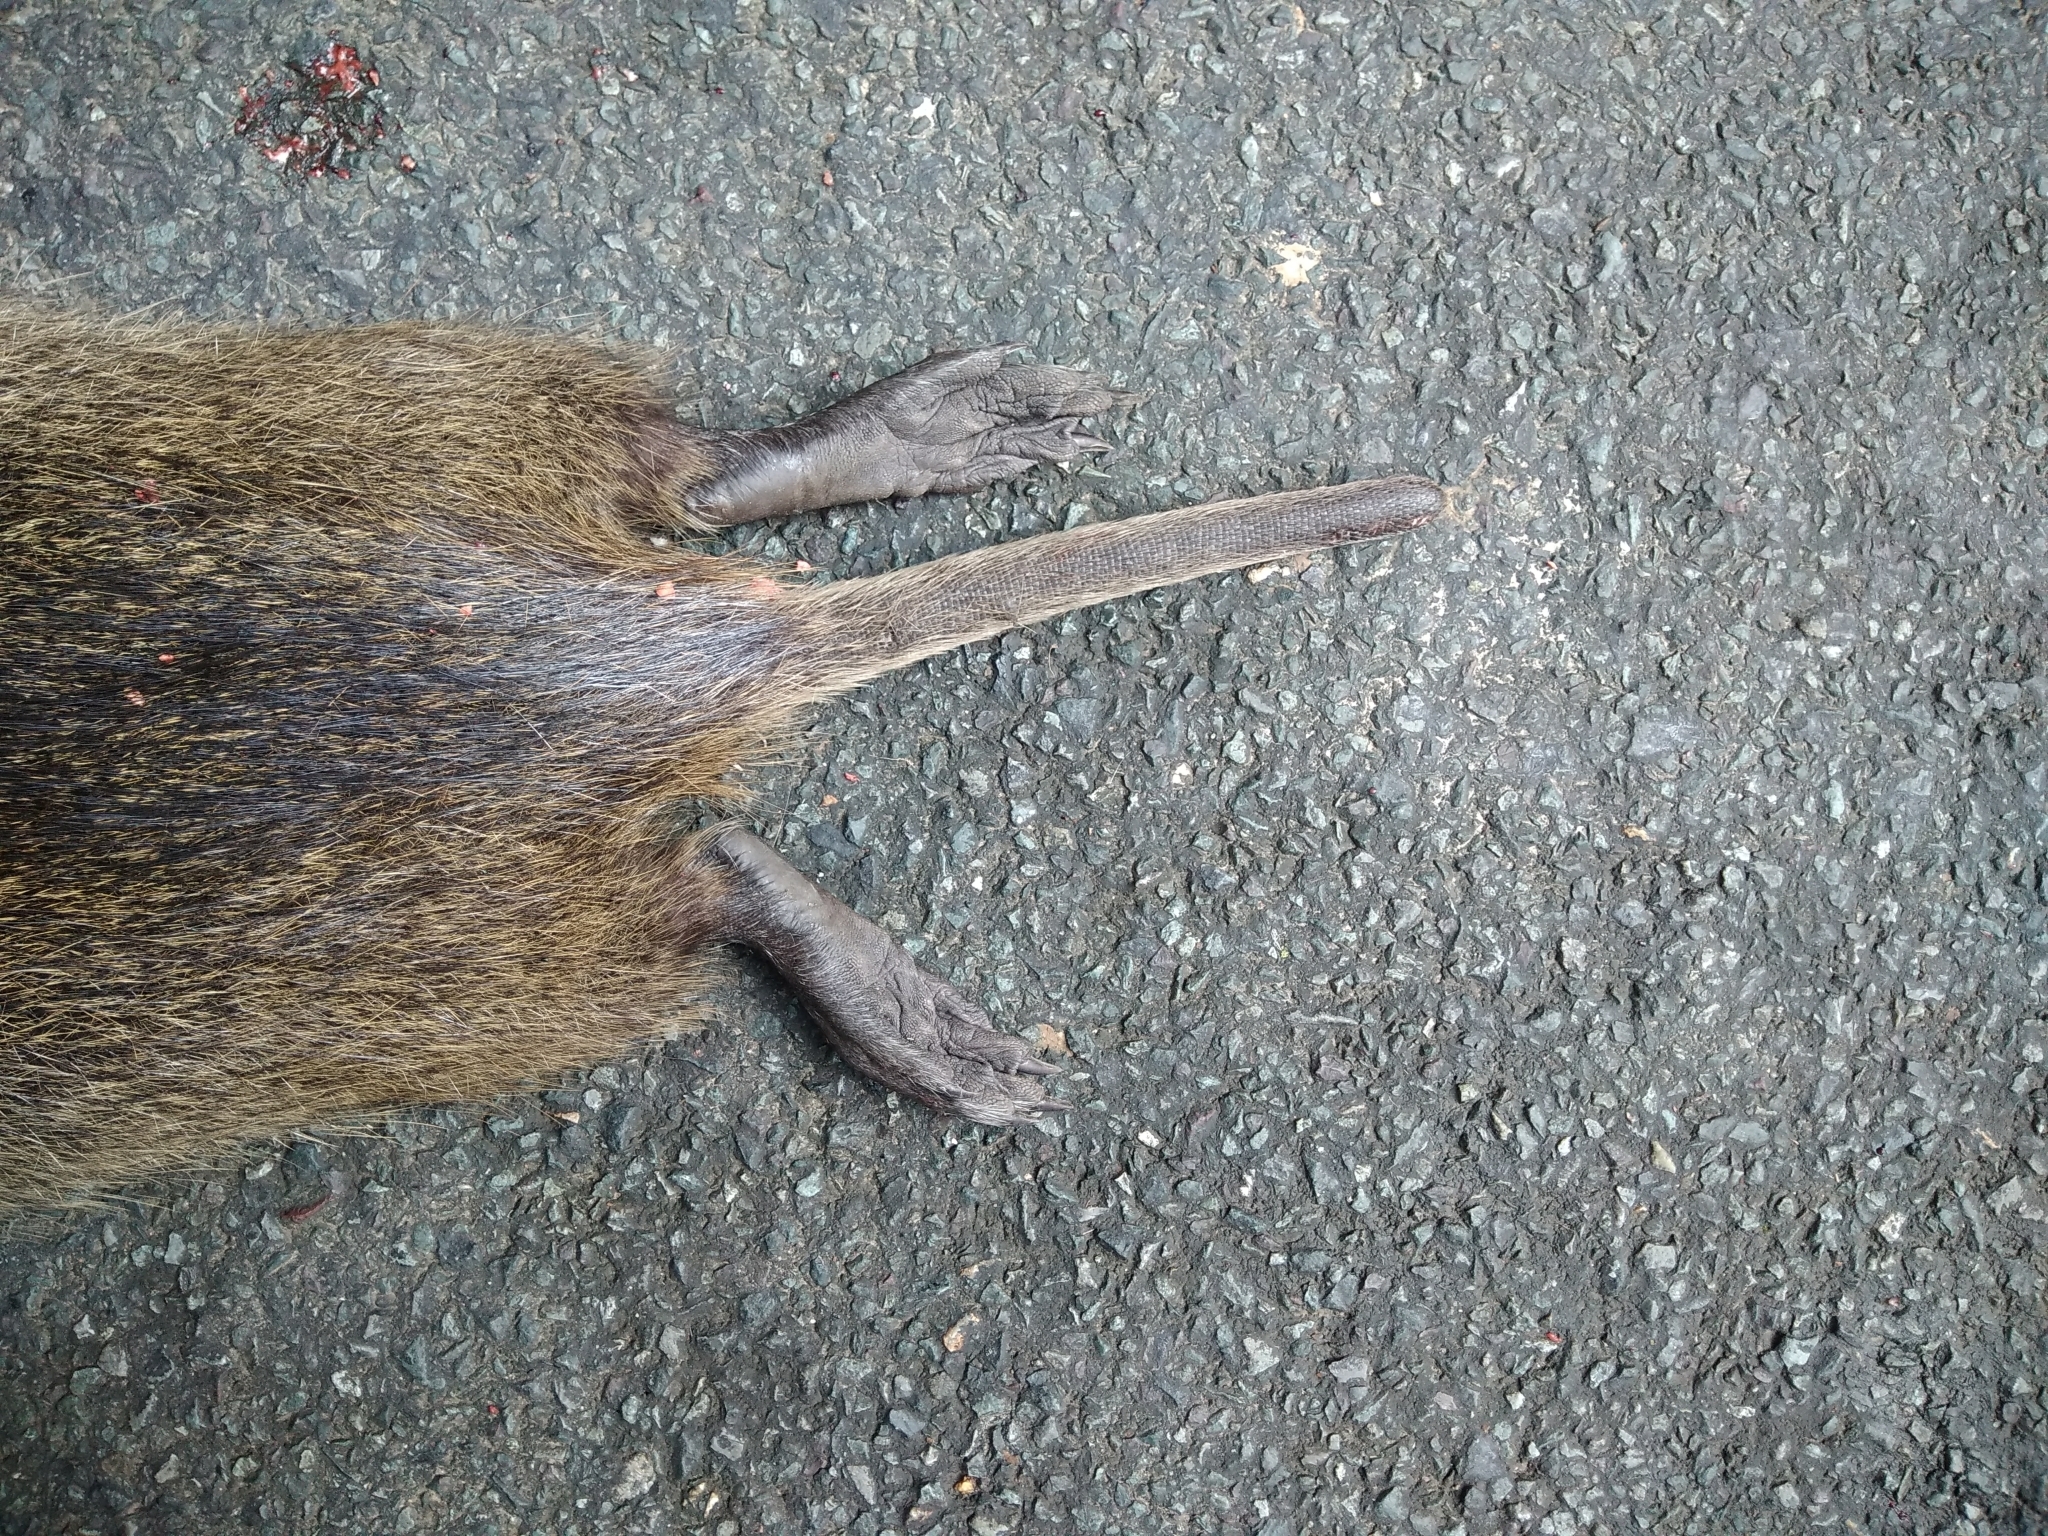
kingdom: Animalia
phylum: Chordata
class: Mammalia
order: Rodentia
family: Myocastoridae
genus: Myocastor
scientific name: Myocastor coypus
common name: Coypu
